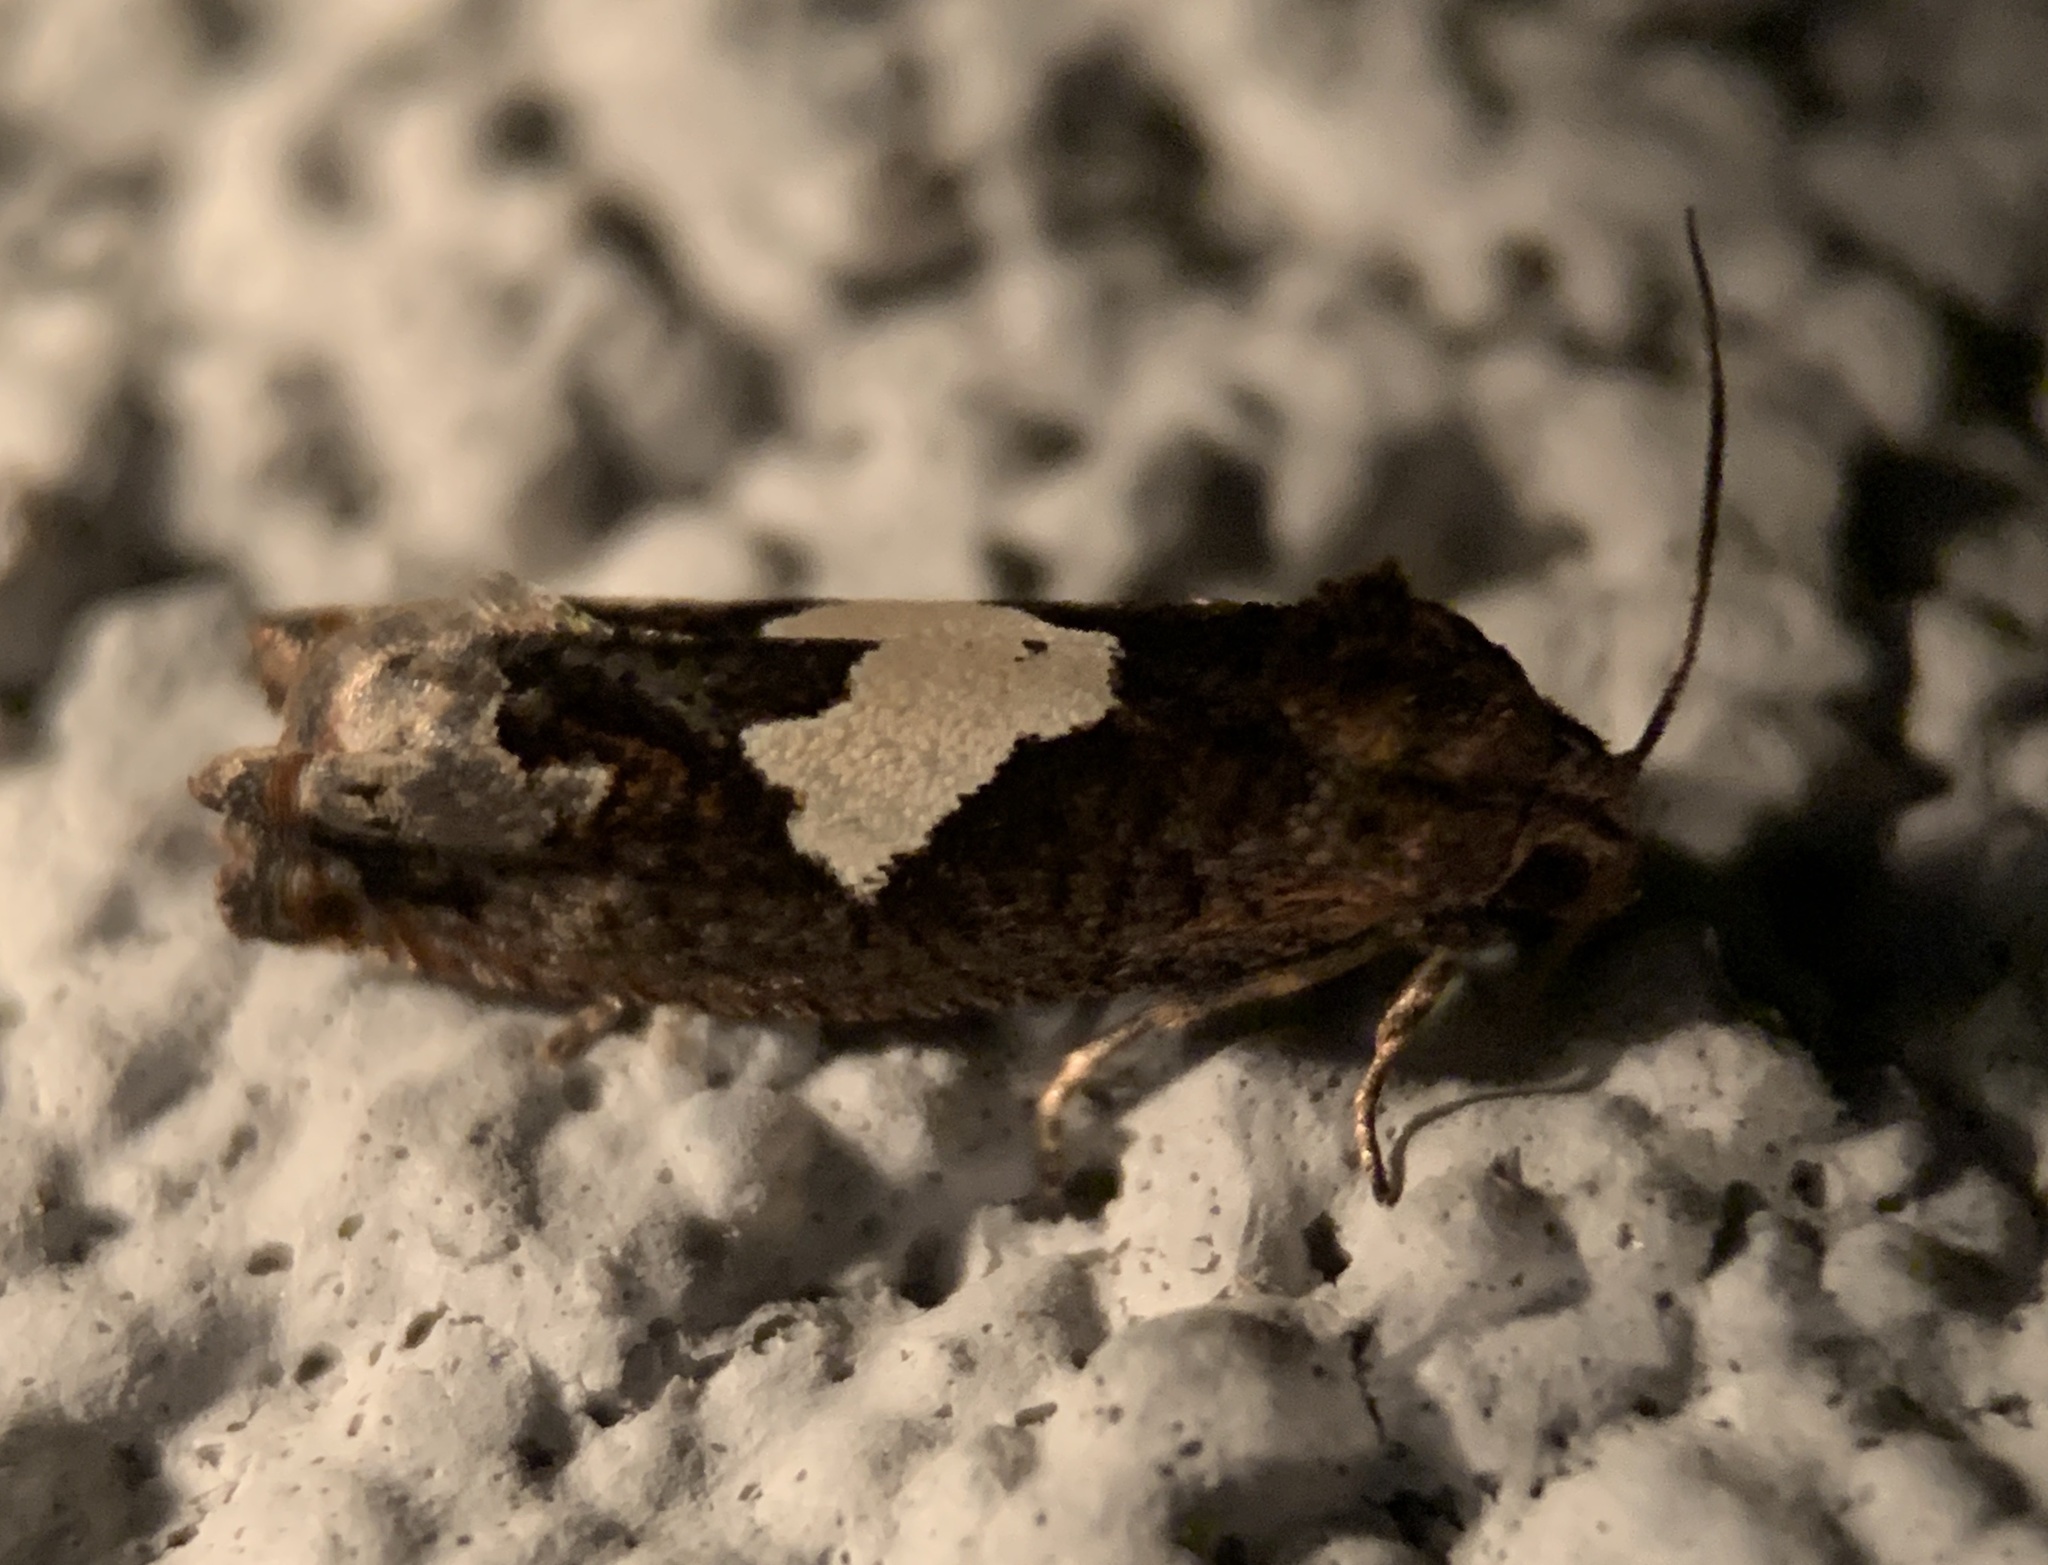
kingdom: Animalia
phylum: Arthropoda
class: Insecta
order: Lepidoptera
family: Tortricidae
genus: Epiblema
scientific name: Epiblema otiosana
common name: Bidens borer moth
